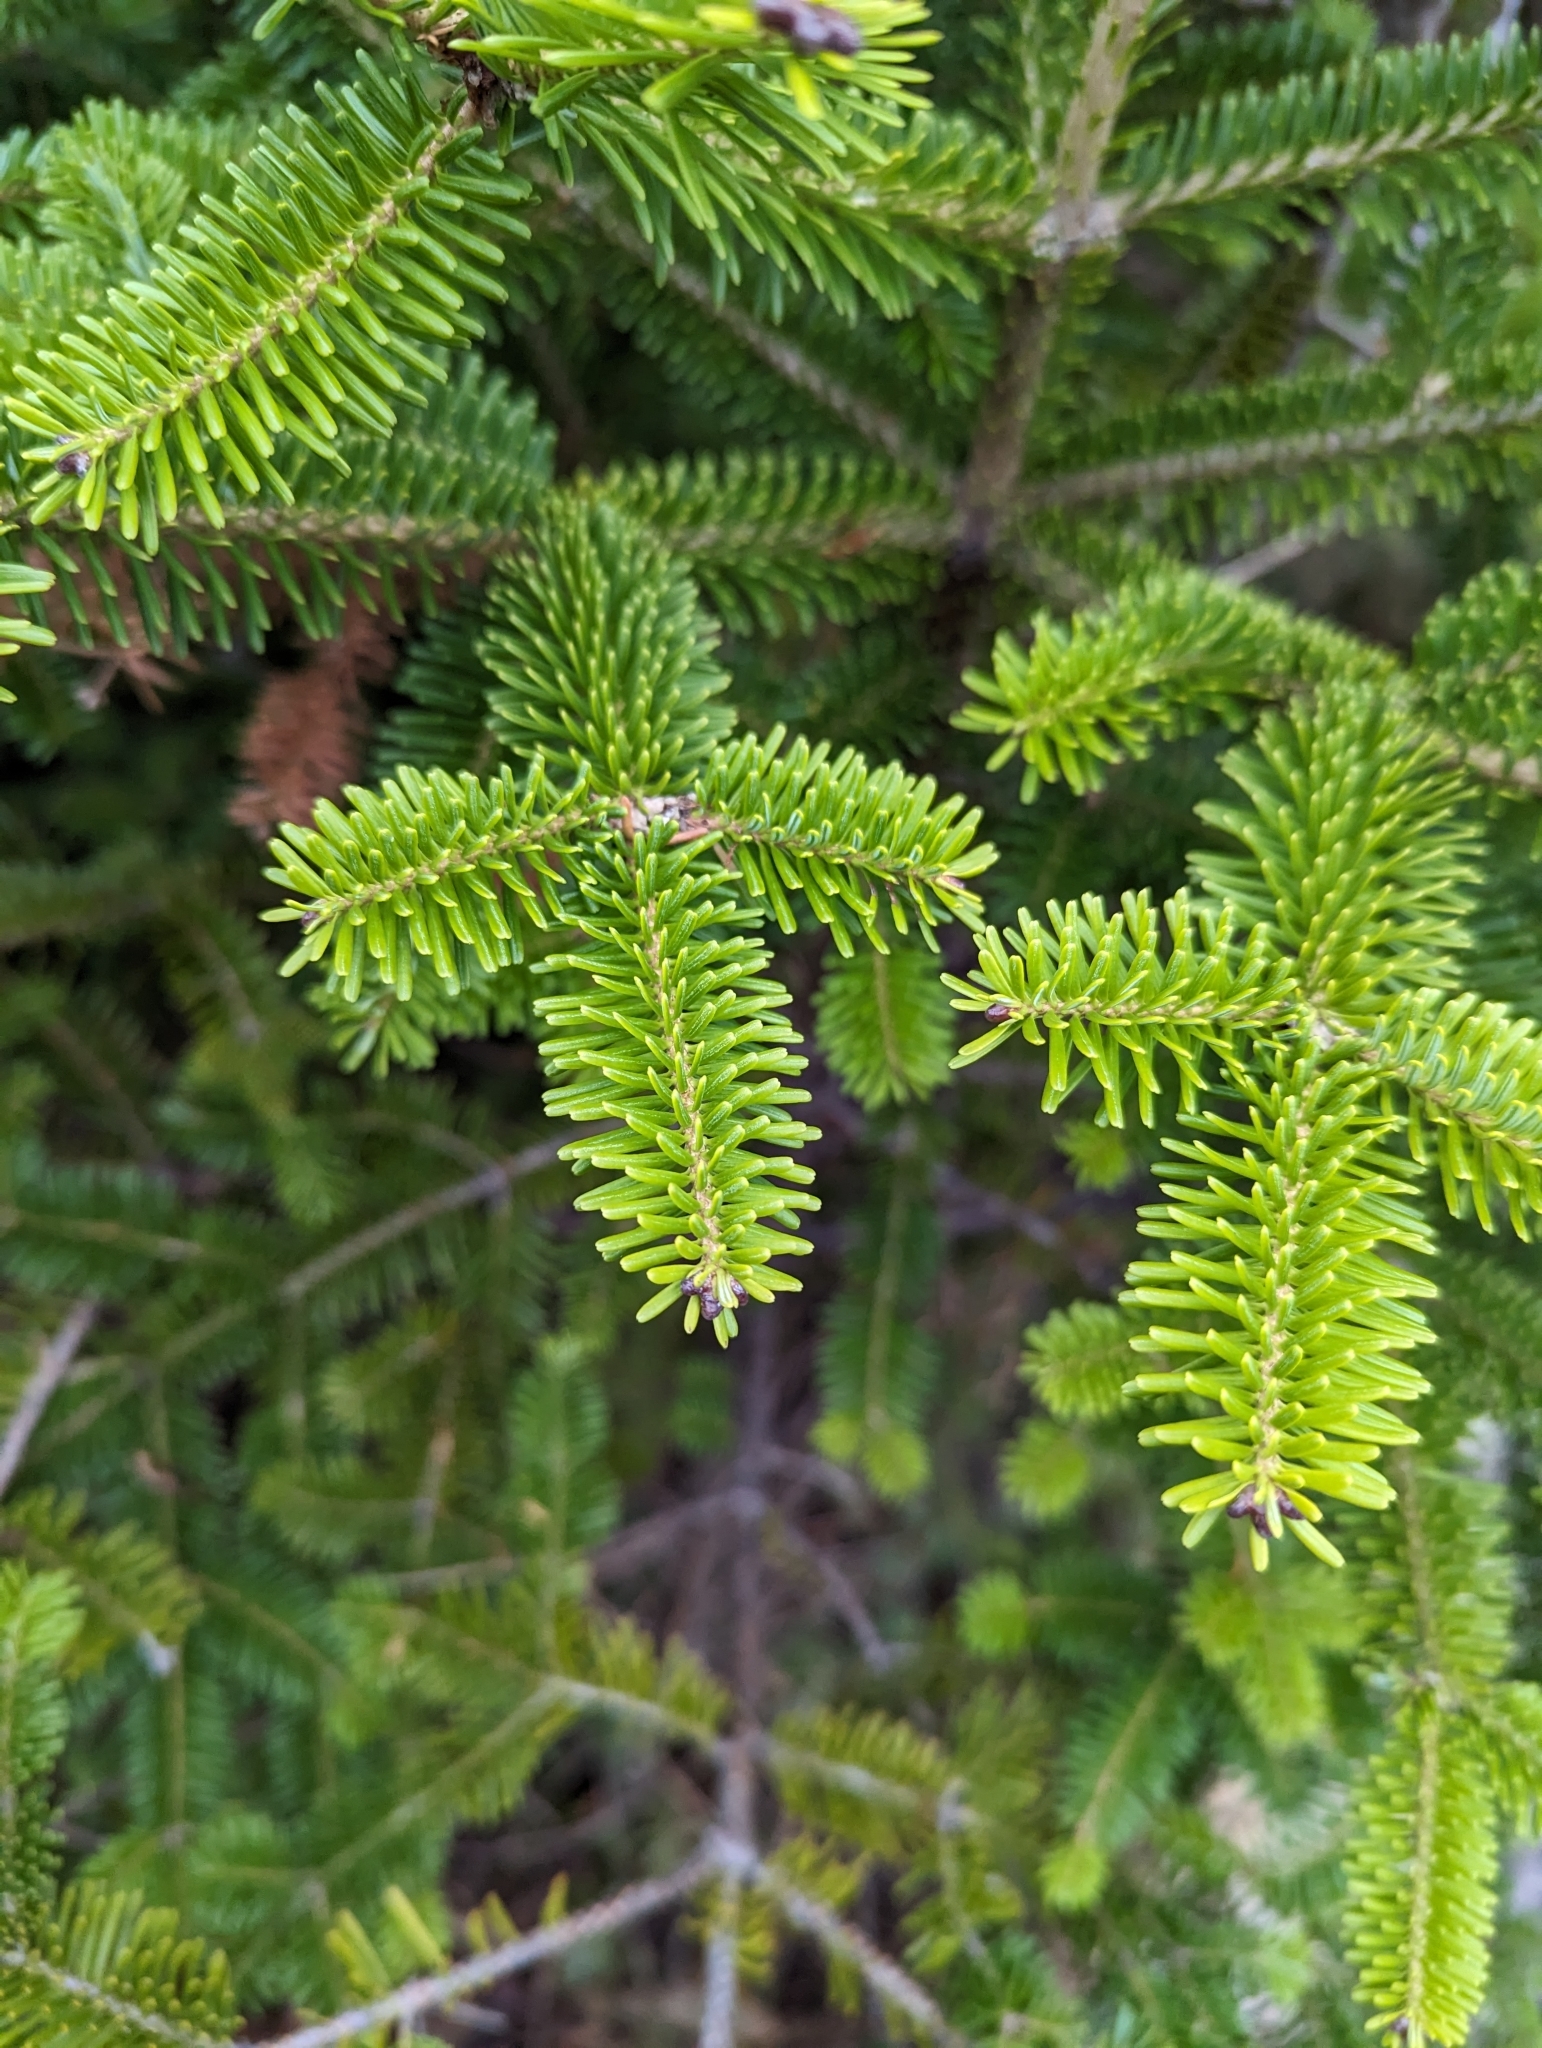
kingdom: Plantae
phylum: Tracheophyta
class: Pinopsida
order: Pinales
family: Pinaceae
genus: Abies
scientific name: Abies balsamea
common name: Balsam fir
